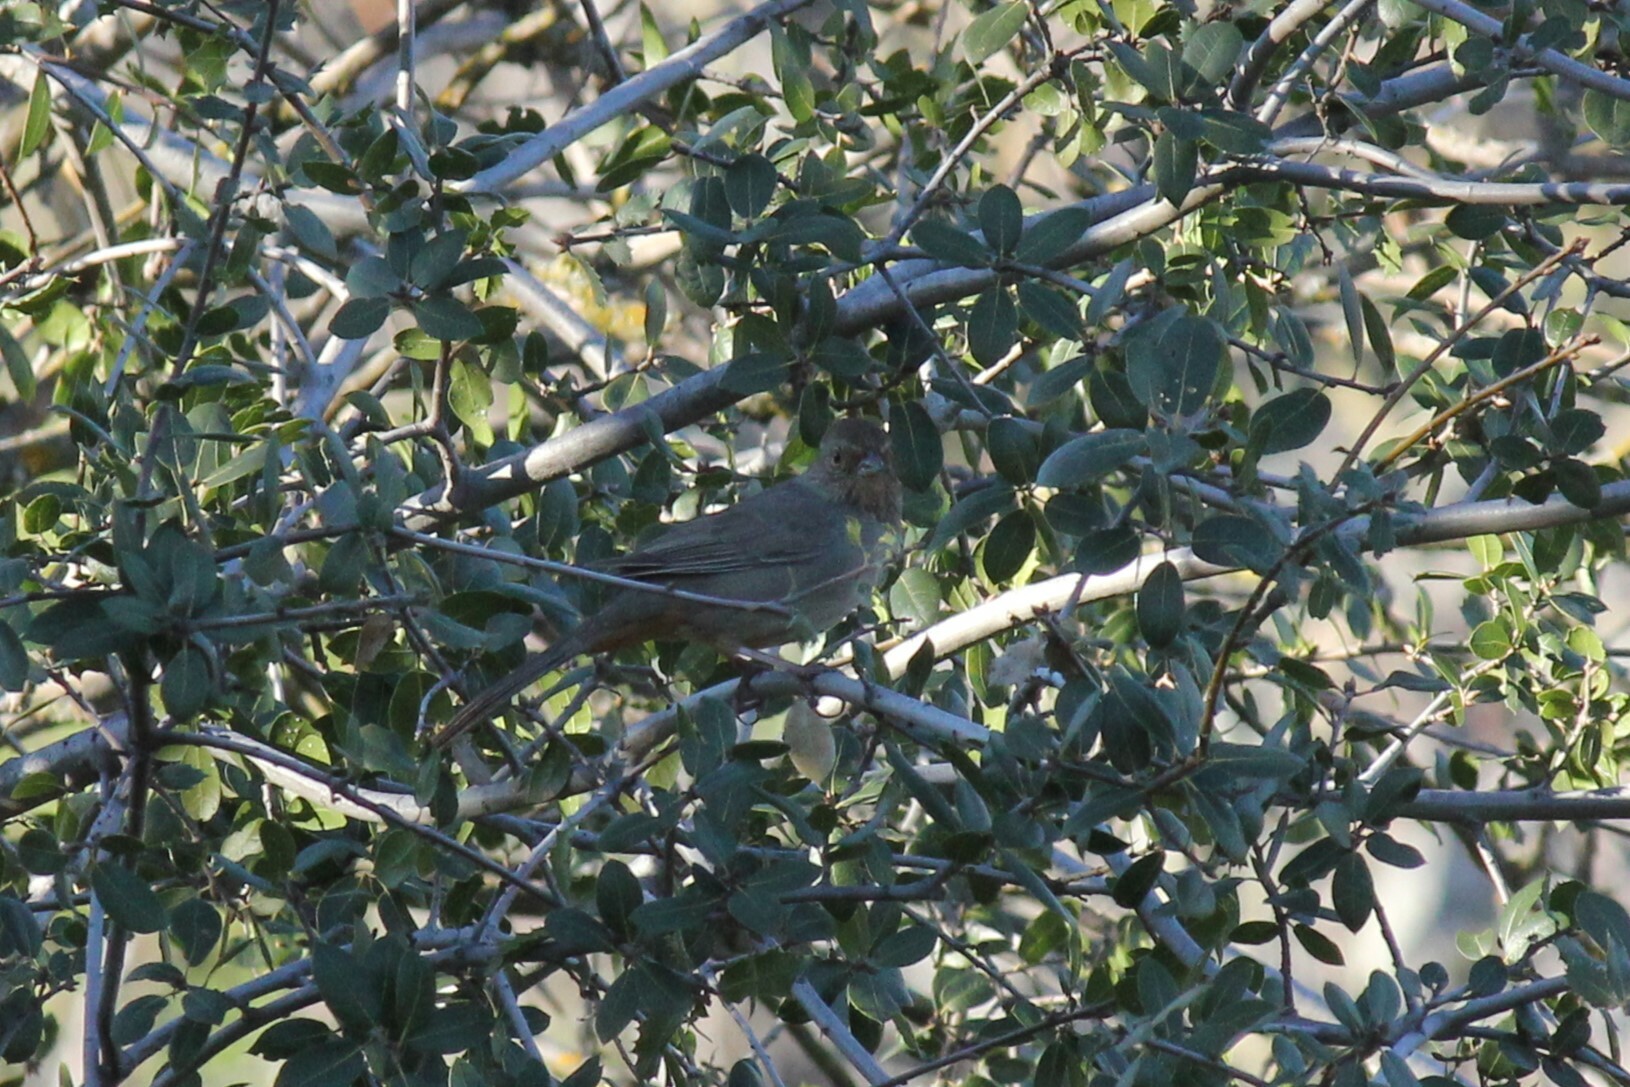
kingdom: Animalia
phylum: Chordata
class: Aves
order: Passeriformes
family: Passerellidae
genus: Melozone
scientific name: Melozone crissalis
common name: California towhee
